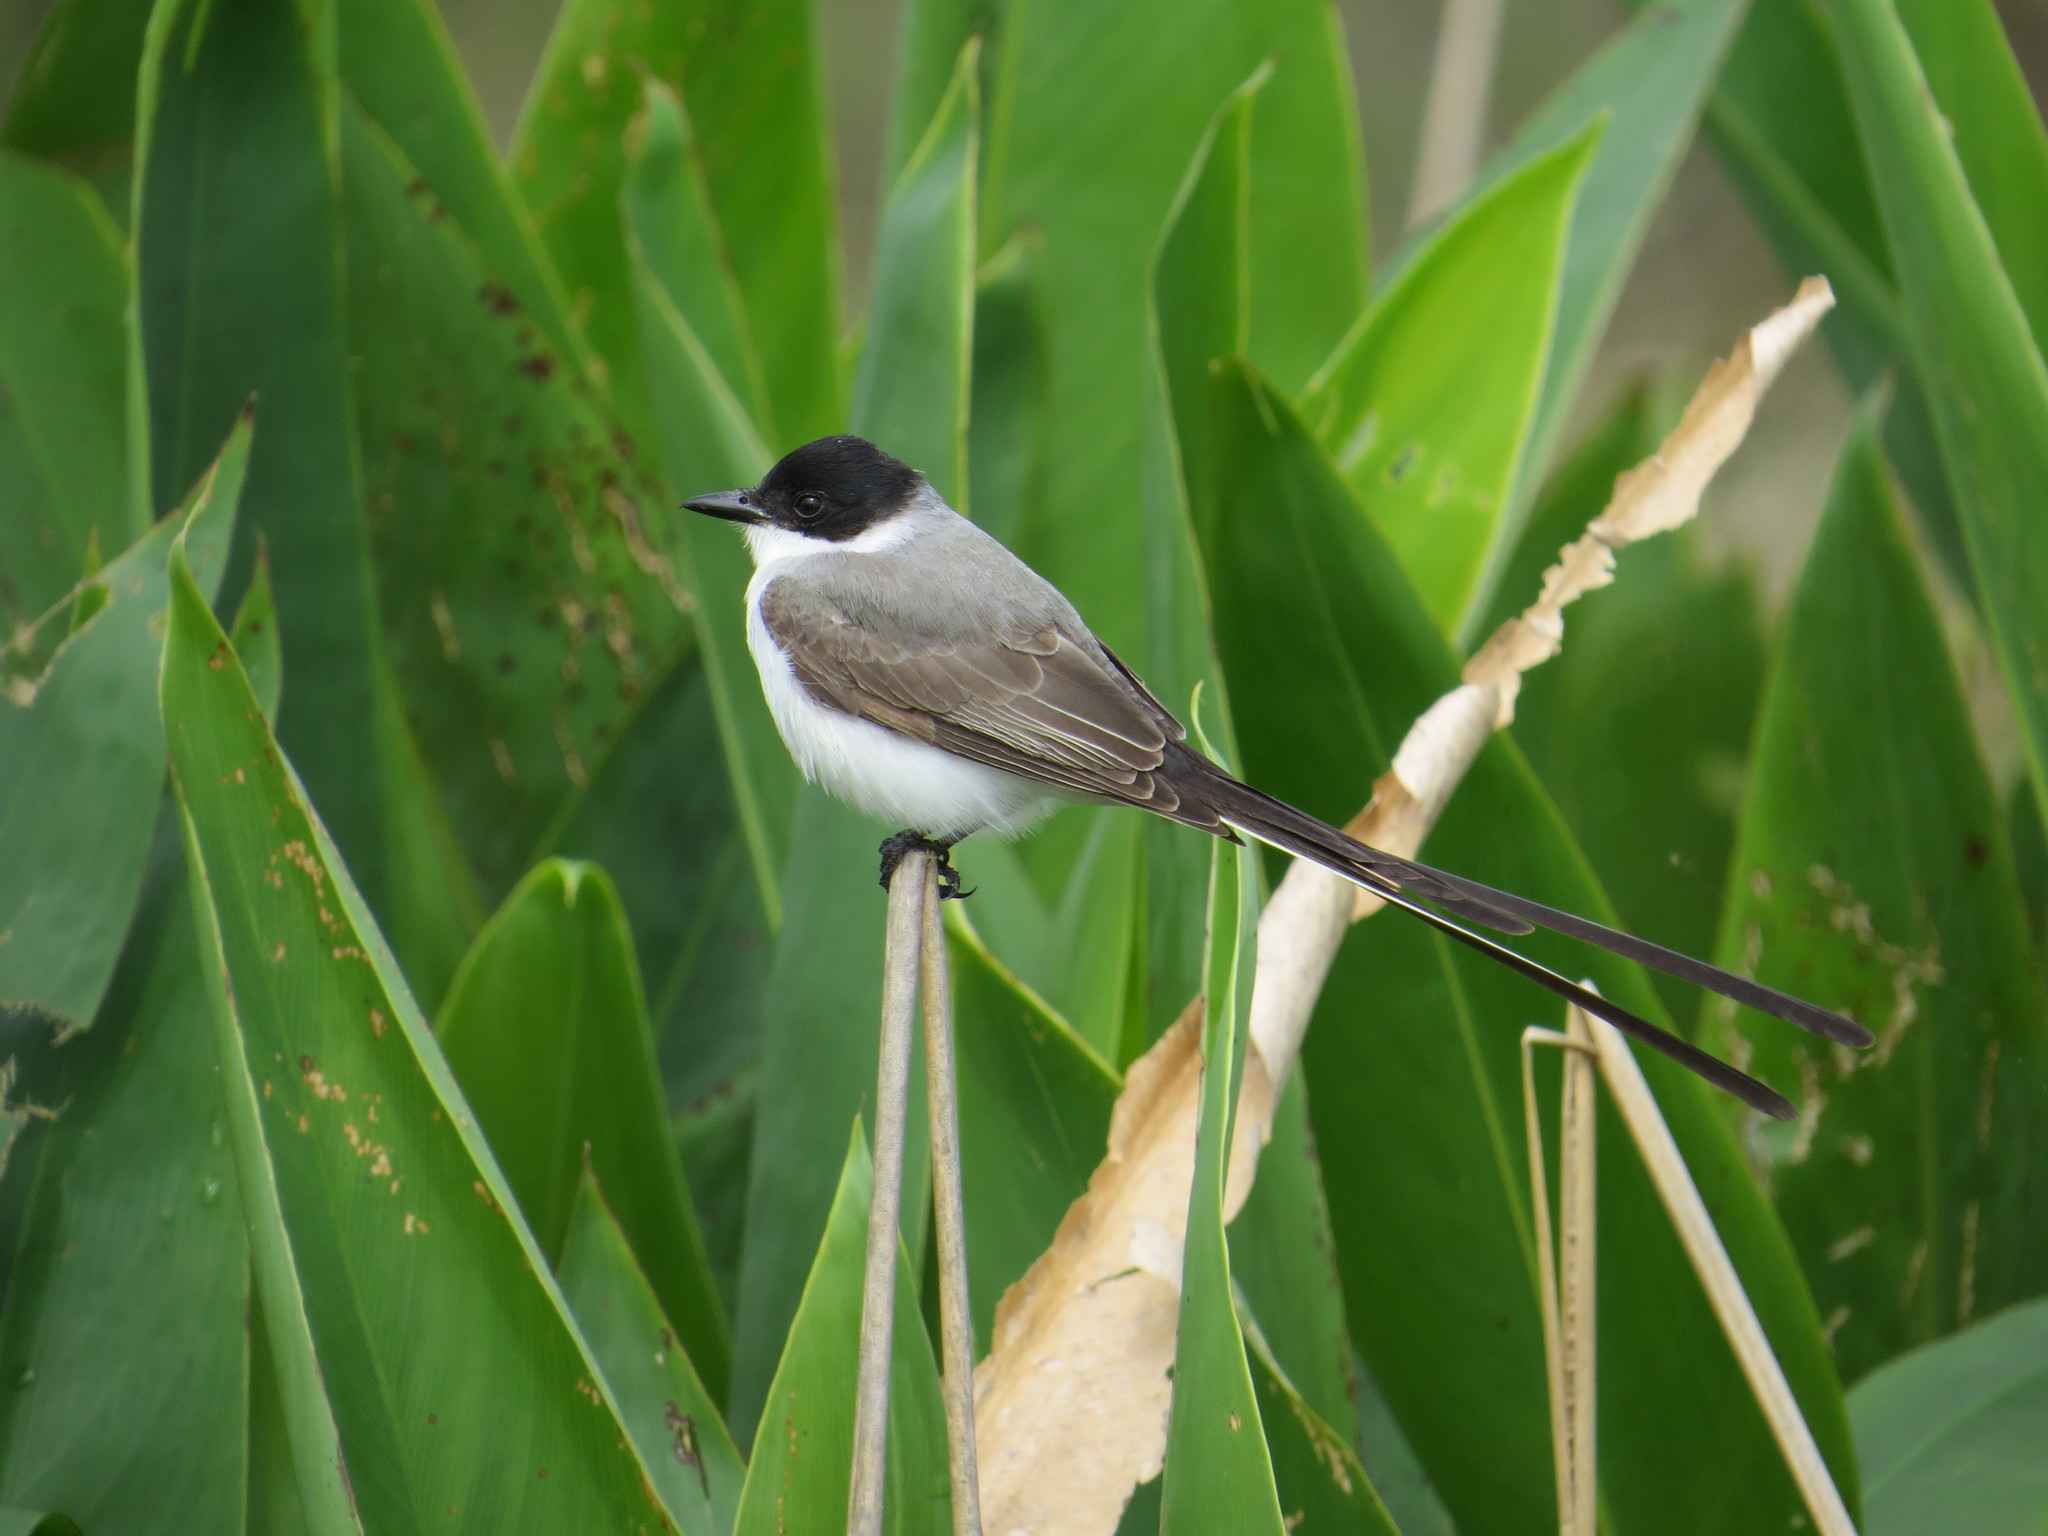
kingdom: Animalia
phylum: Chordata
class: Aves
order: Passeriformes
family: Tyrannidae
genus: Tyrannus
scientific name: Tyrannus savana
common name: Fork-tailed flycatcher
